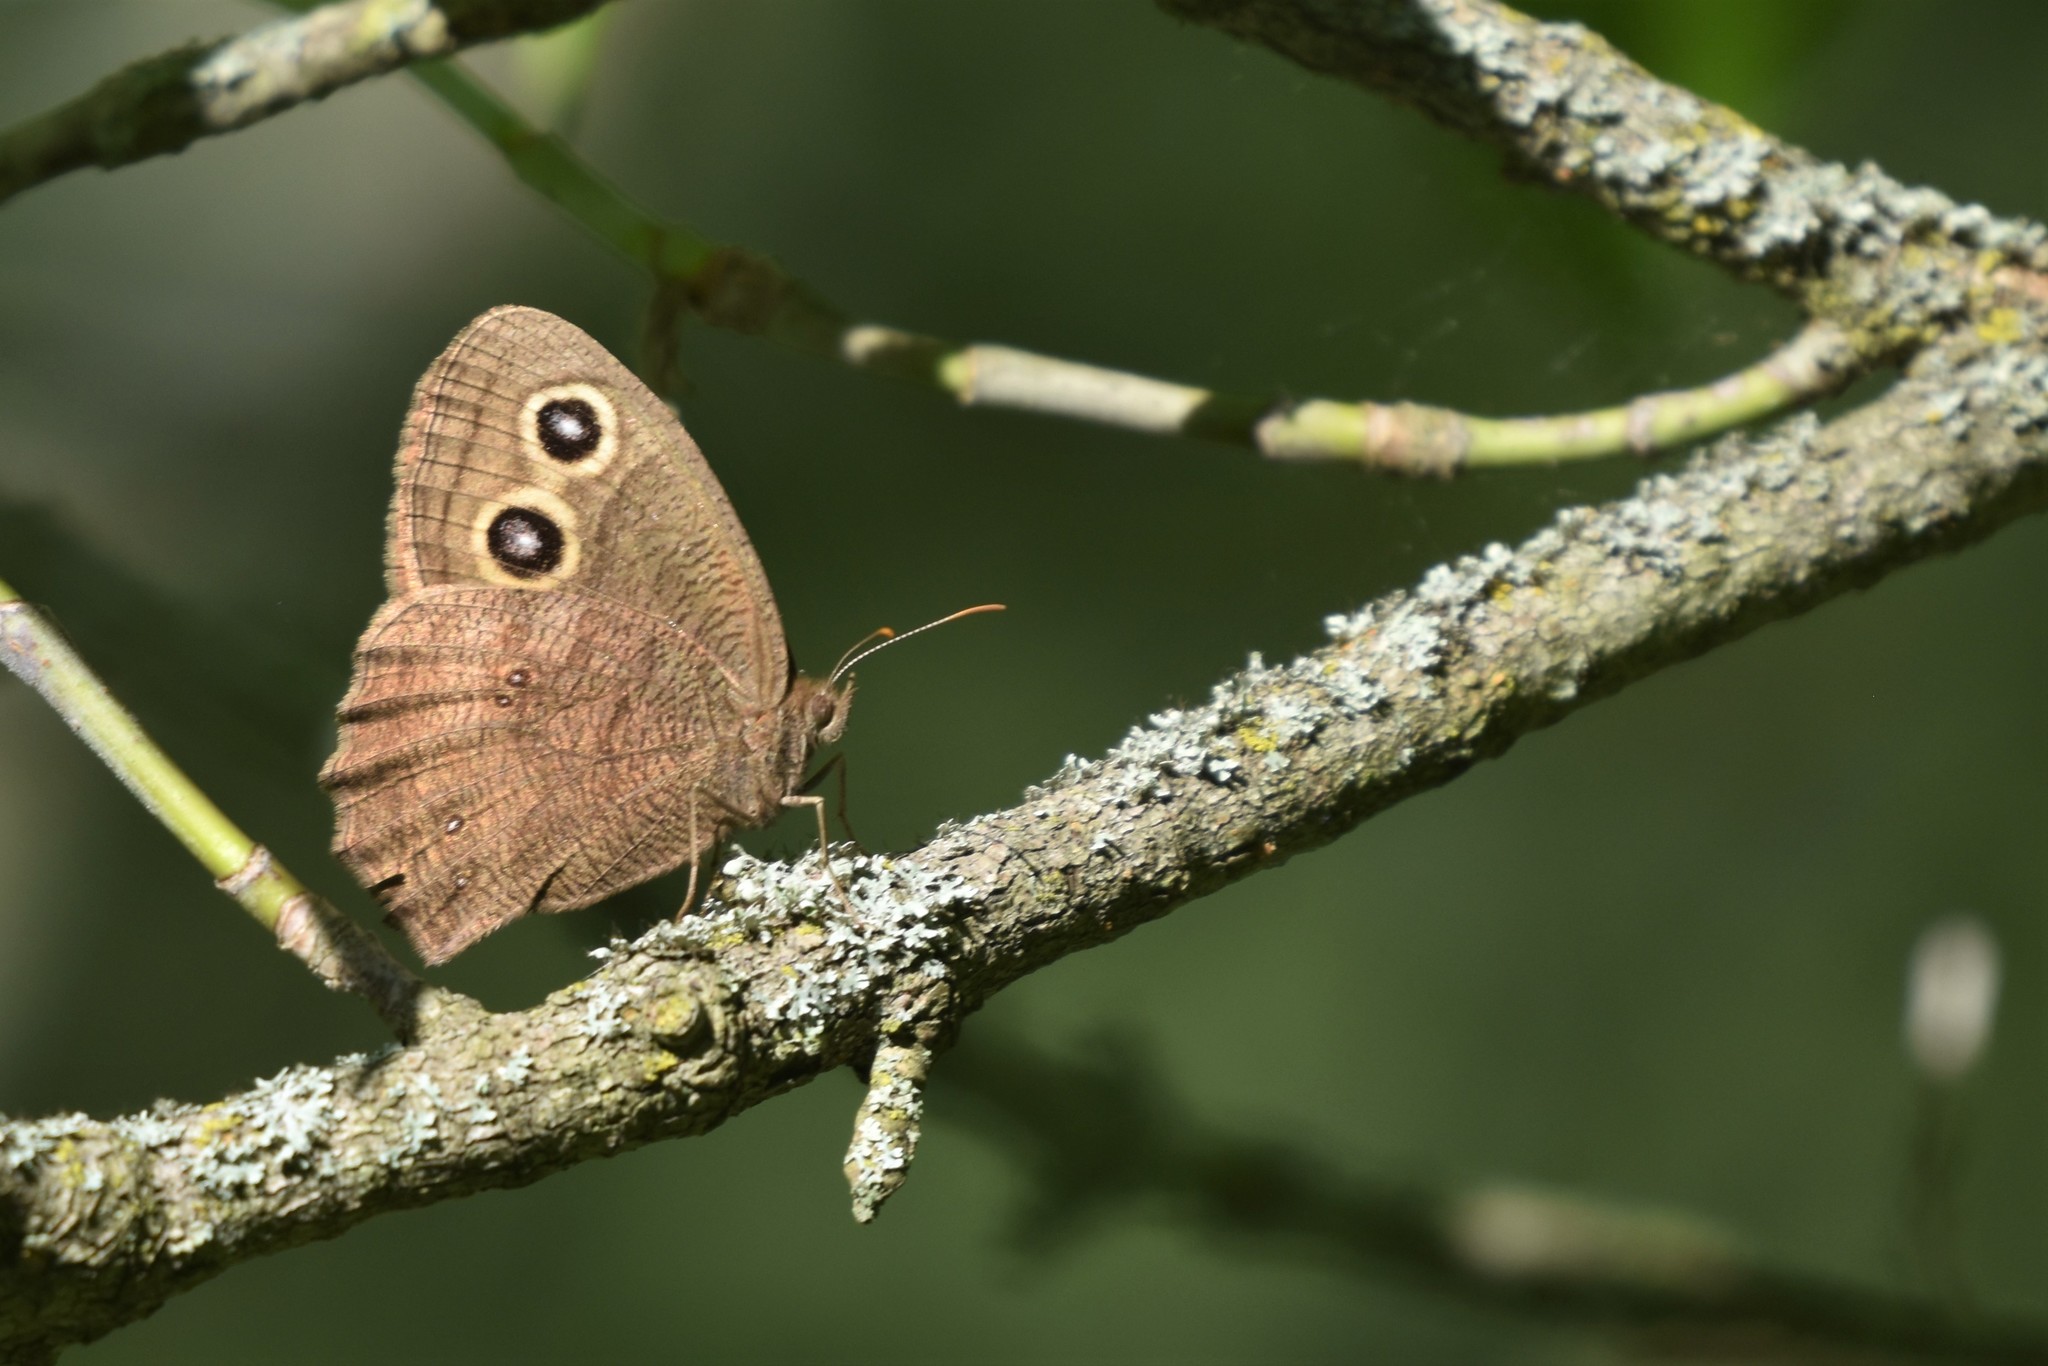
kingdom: Animalia
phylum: Arthropoda
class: Insecta
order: Lepidoptera
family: Nymphalidae
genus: Cercyonis
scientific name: Cercyonis pegala
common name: Common wood-nymph
